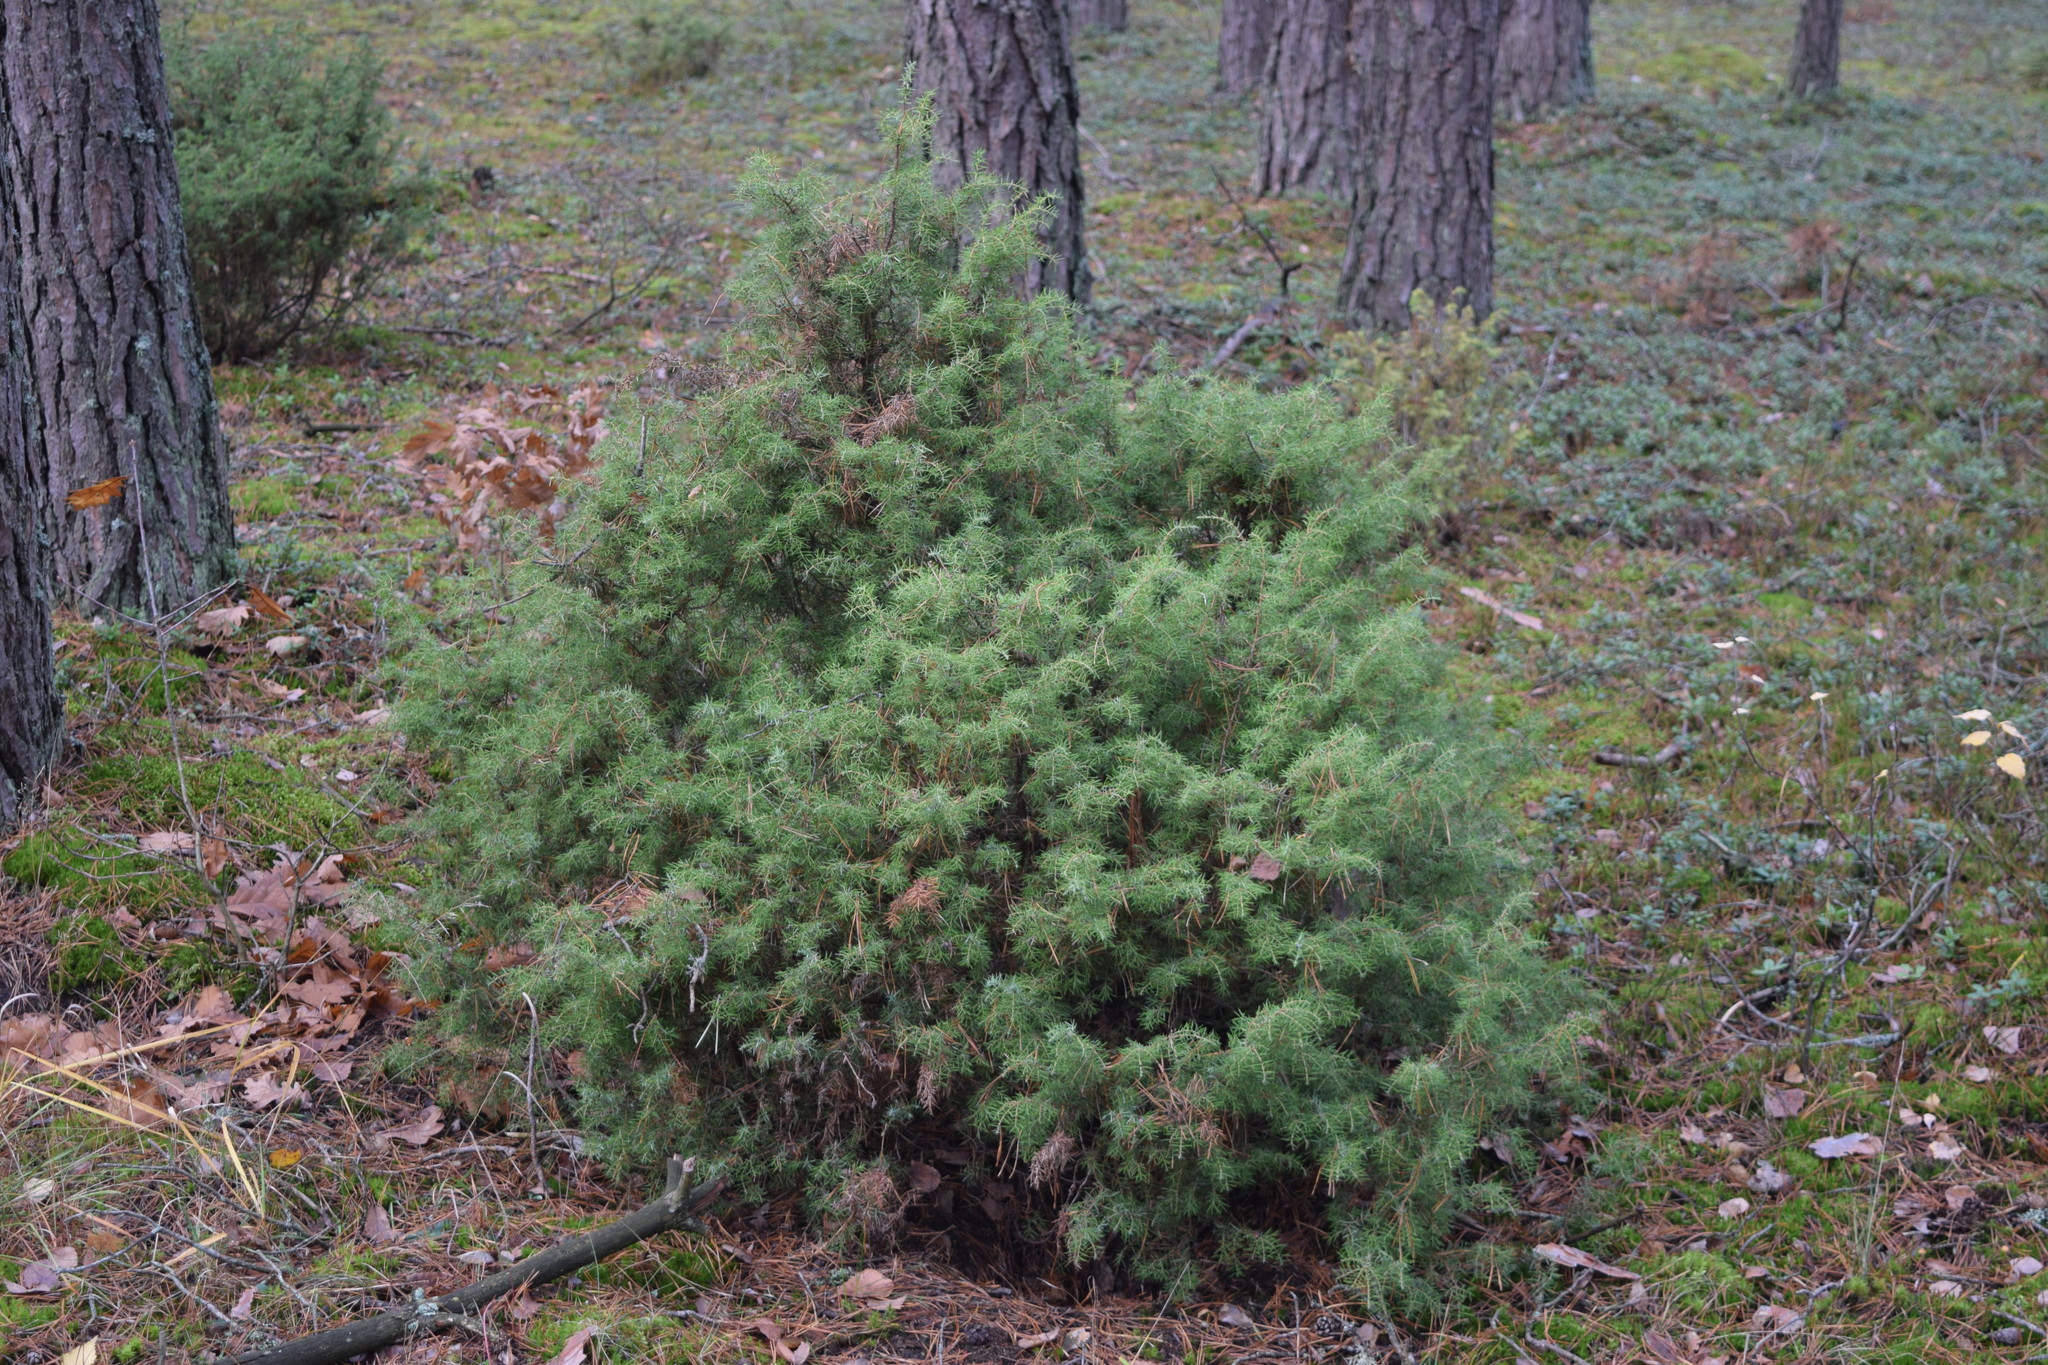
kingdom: Plantae
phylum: Tracheophyta
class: Pinopsida
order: Pinales
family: Cupressaceae
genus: Juniperus
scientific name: Juniperus communis
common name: Common juniper
